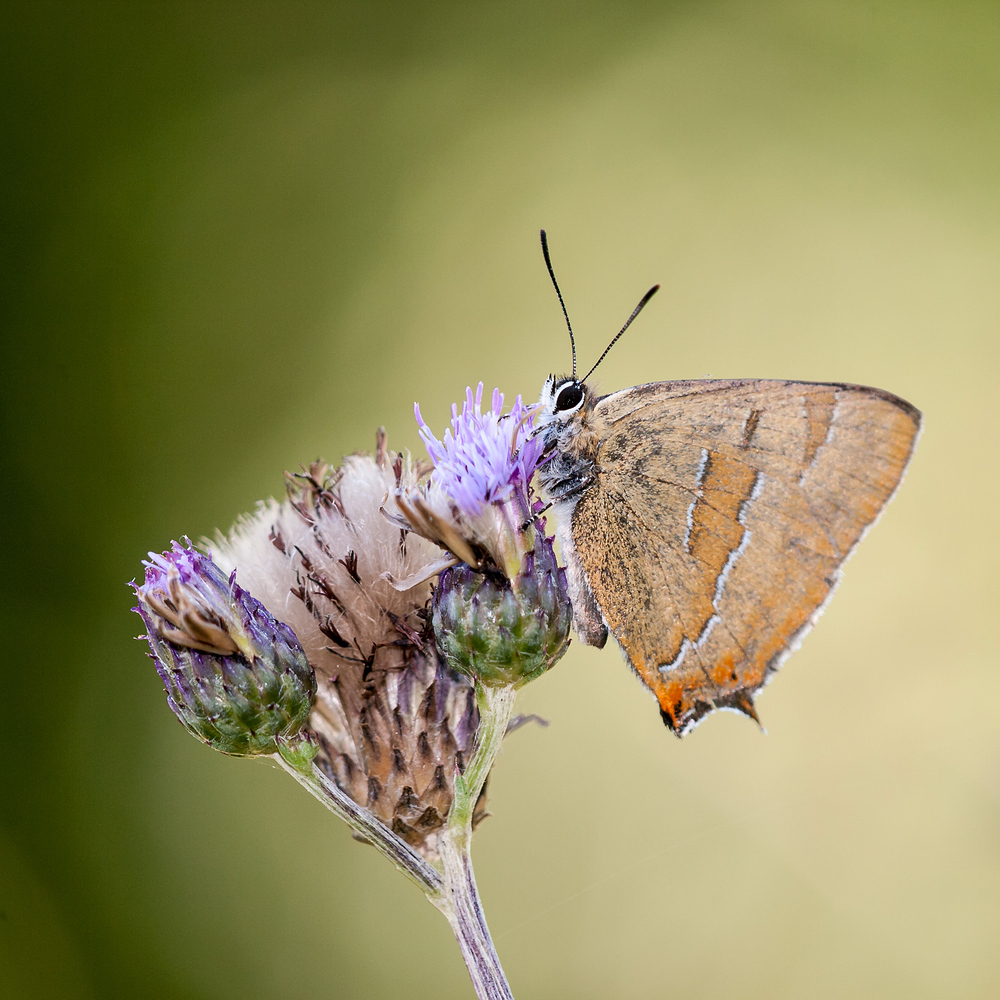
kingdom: Animalia
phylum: Arthropoda
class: Insecta
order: Lepidoptera
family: Lycaenidae
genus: Thecla
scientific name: Thecla betulae
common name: Brown hairstreak
